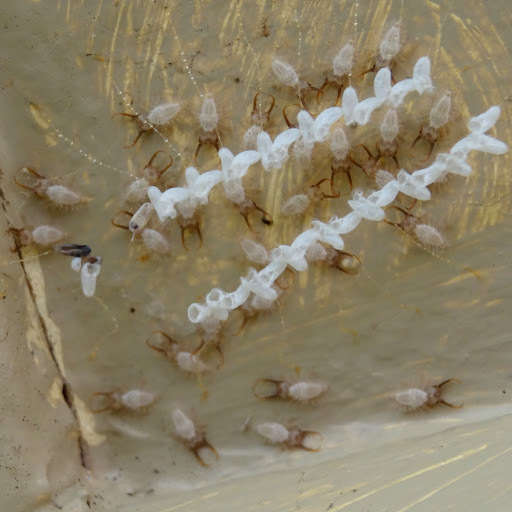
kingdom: Animalia
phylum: Arthropoda
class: Insecta
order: Neuroptera
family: Nymphidae
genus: Nymphes
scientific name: Nymphes myrmeleonoides
